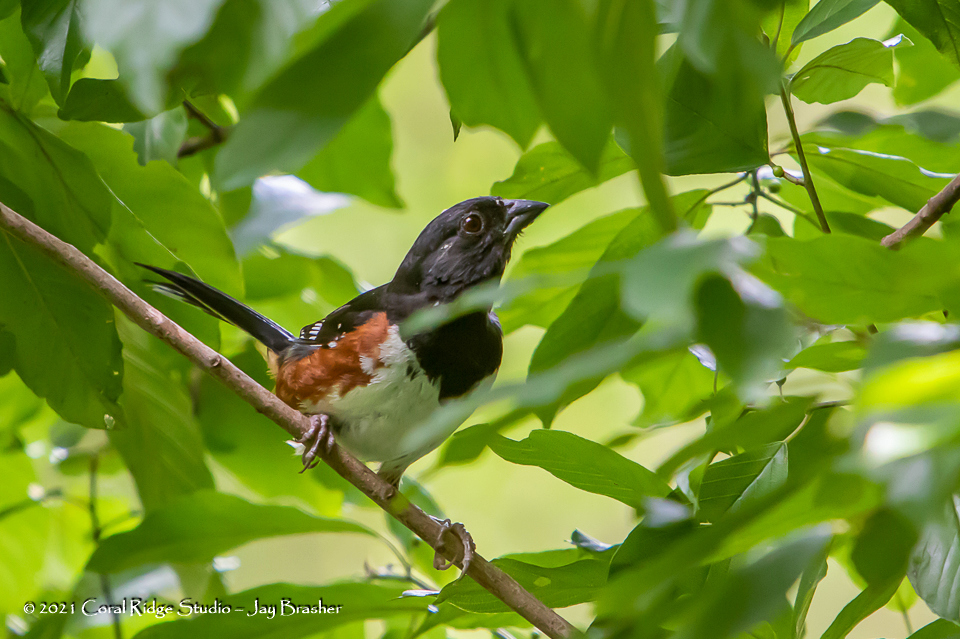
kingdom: Animalia
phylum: Chordata
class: Aves
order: Passeriformes
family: Passerellidae
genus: Pipilo
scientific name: Pipilo erythrophthalmus
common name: Eastern towhee
